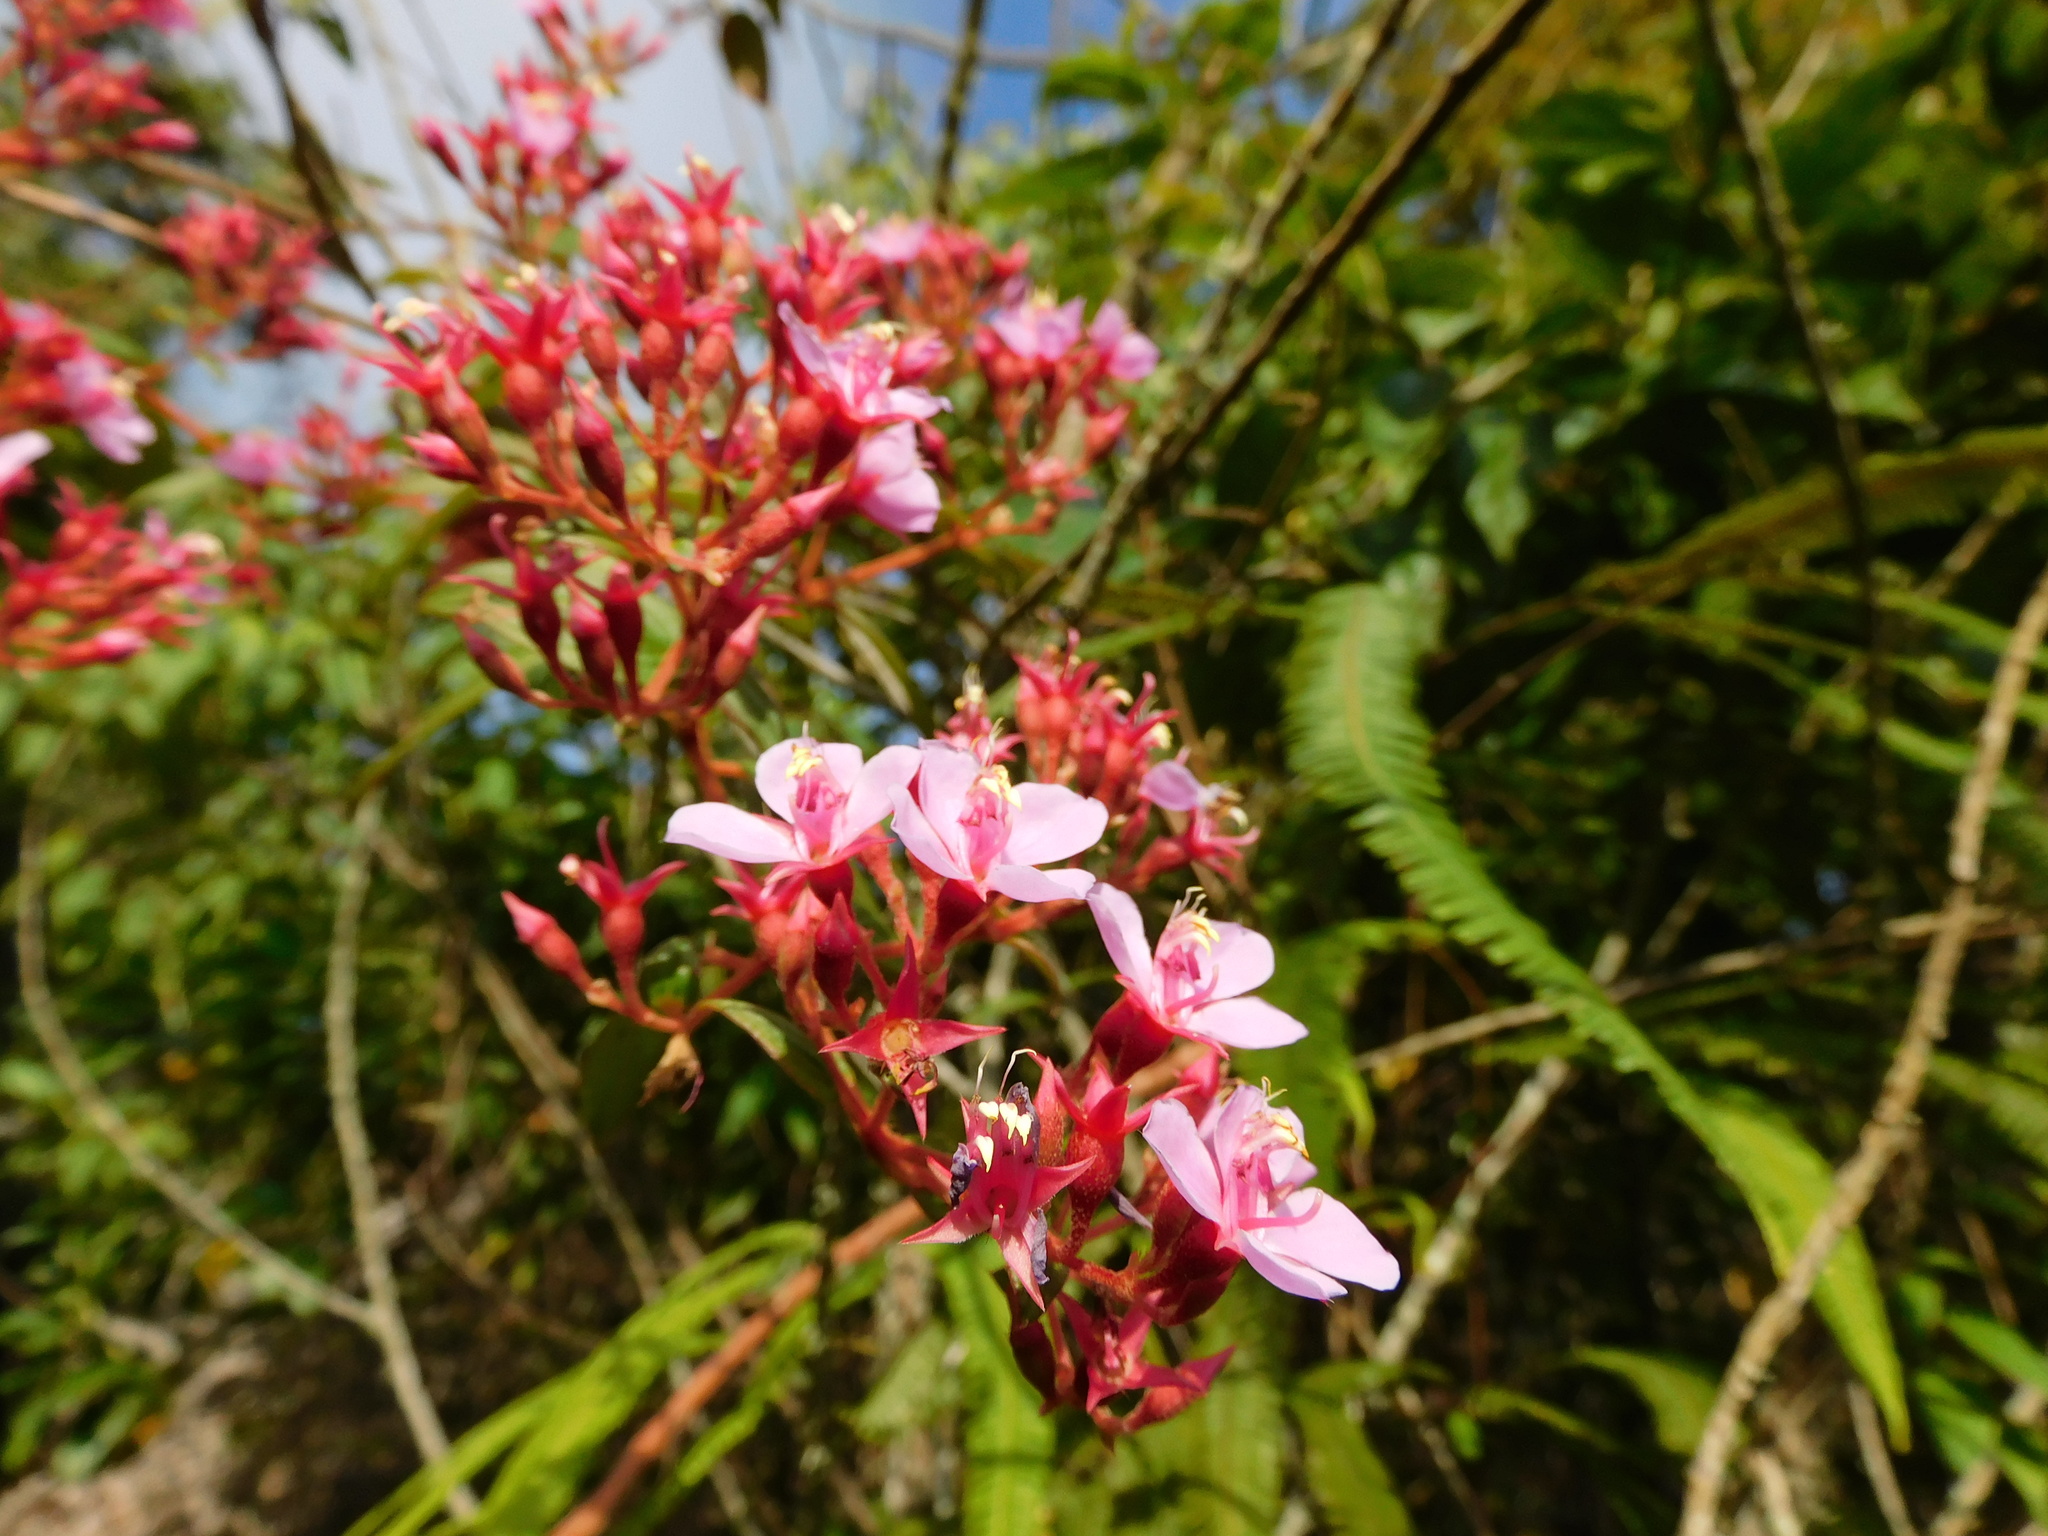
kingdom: Plantae
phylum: Tracheophyta
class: Magnoliopsida
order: Myrtales
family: Melastomataceae
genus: Monochaetum
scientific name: Monochaetum multiflorum
